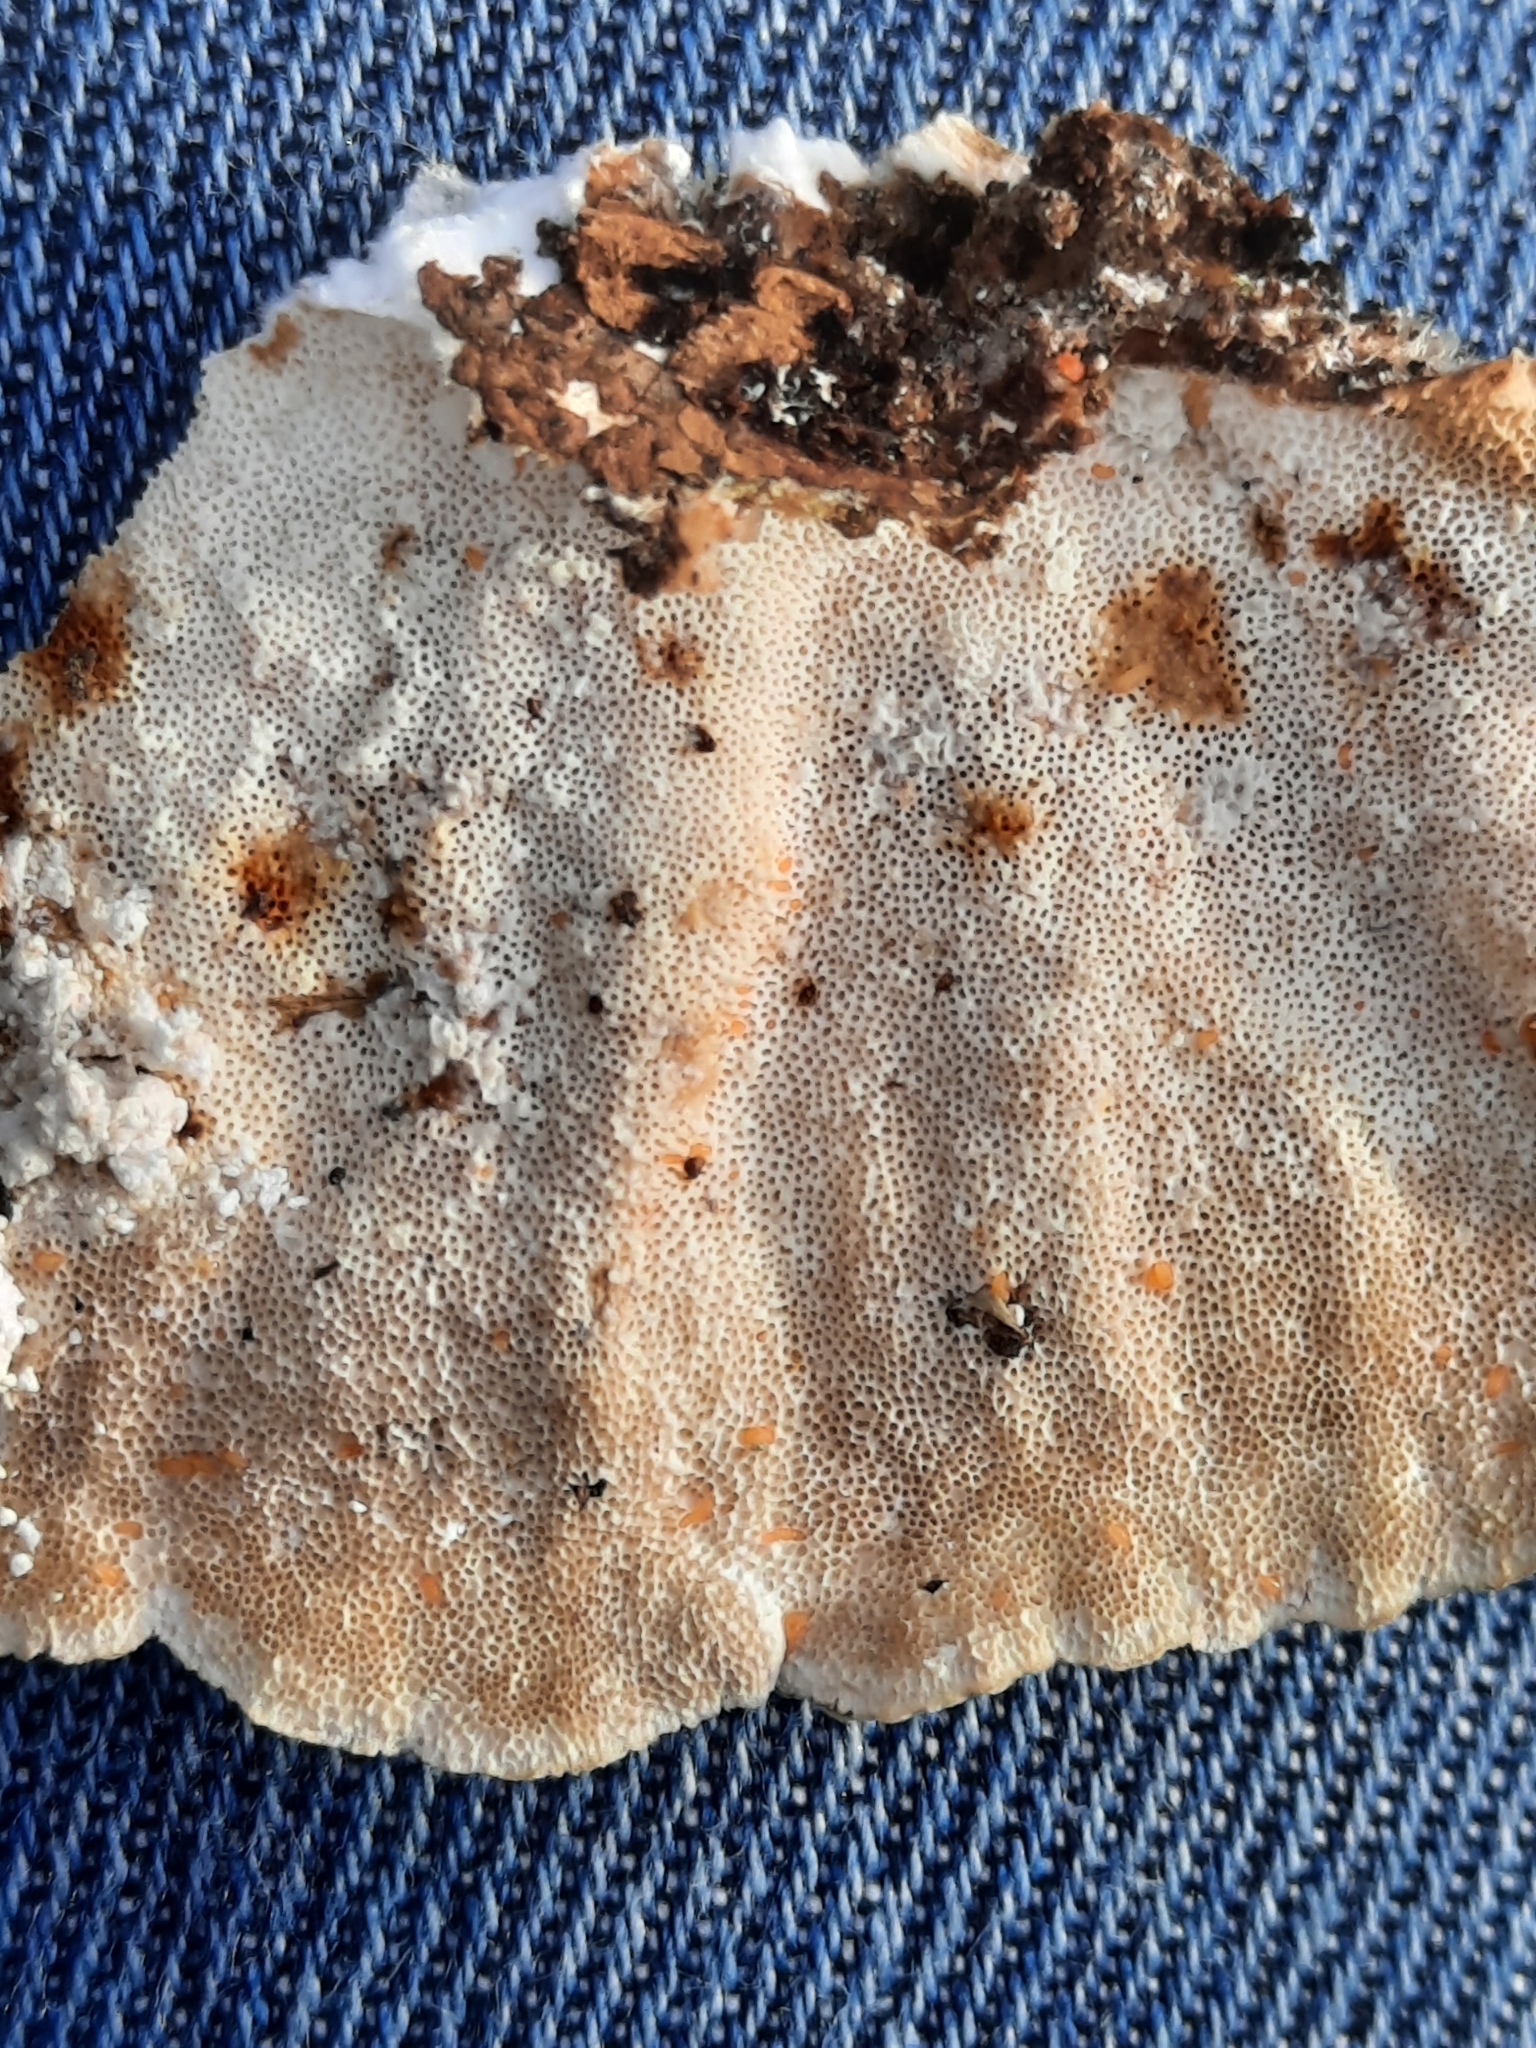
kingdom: Fungi
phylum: Basidiomycota
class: Agaricomycetes
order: Polyporales
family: Polyporaceae
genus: Trametes
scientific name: Trametes versicolor
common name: Turkeytail
